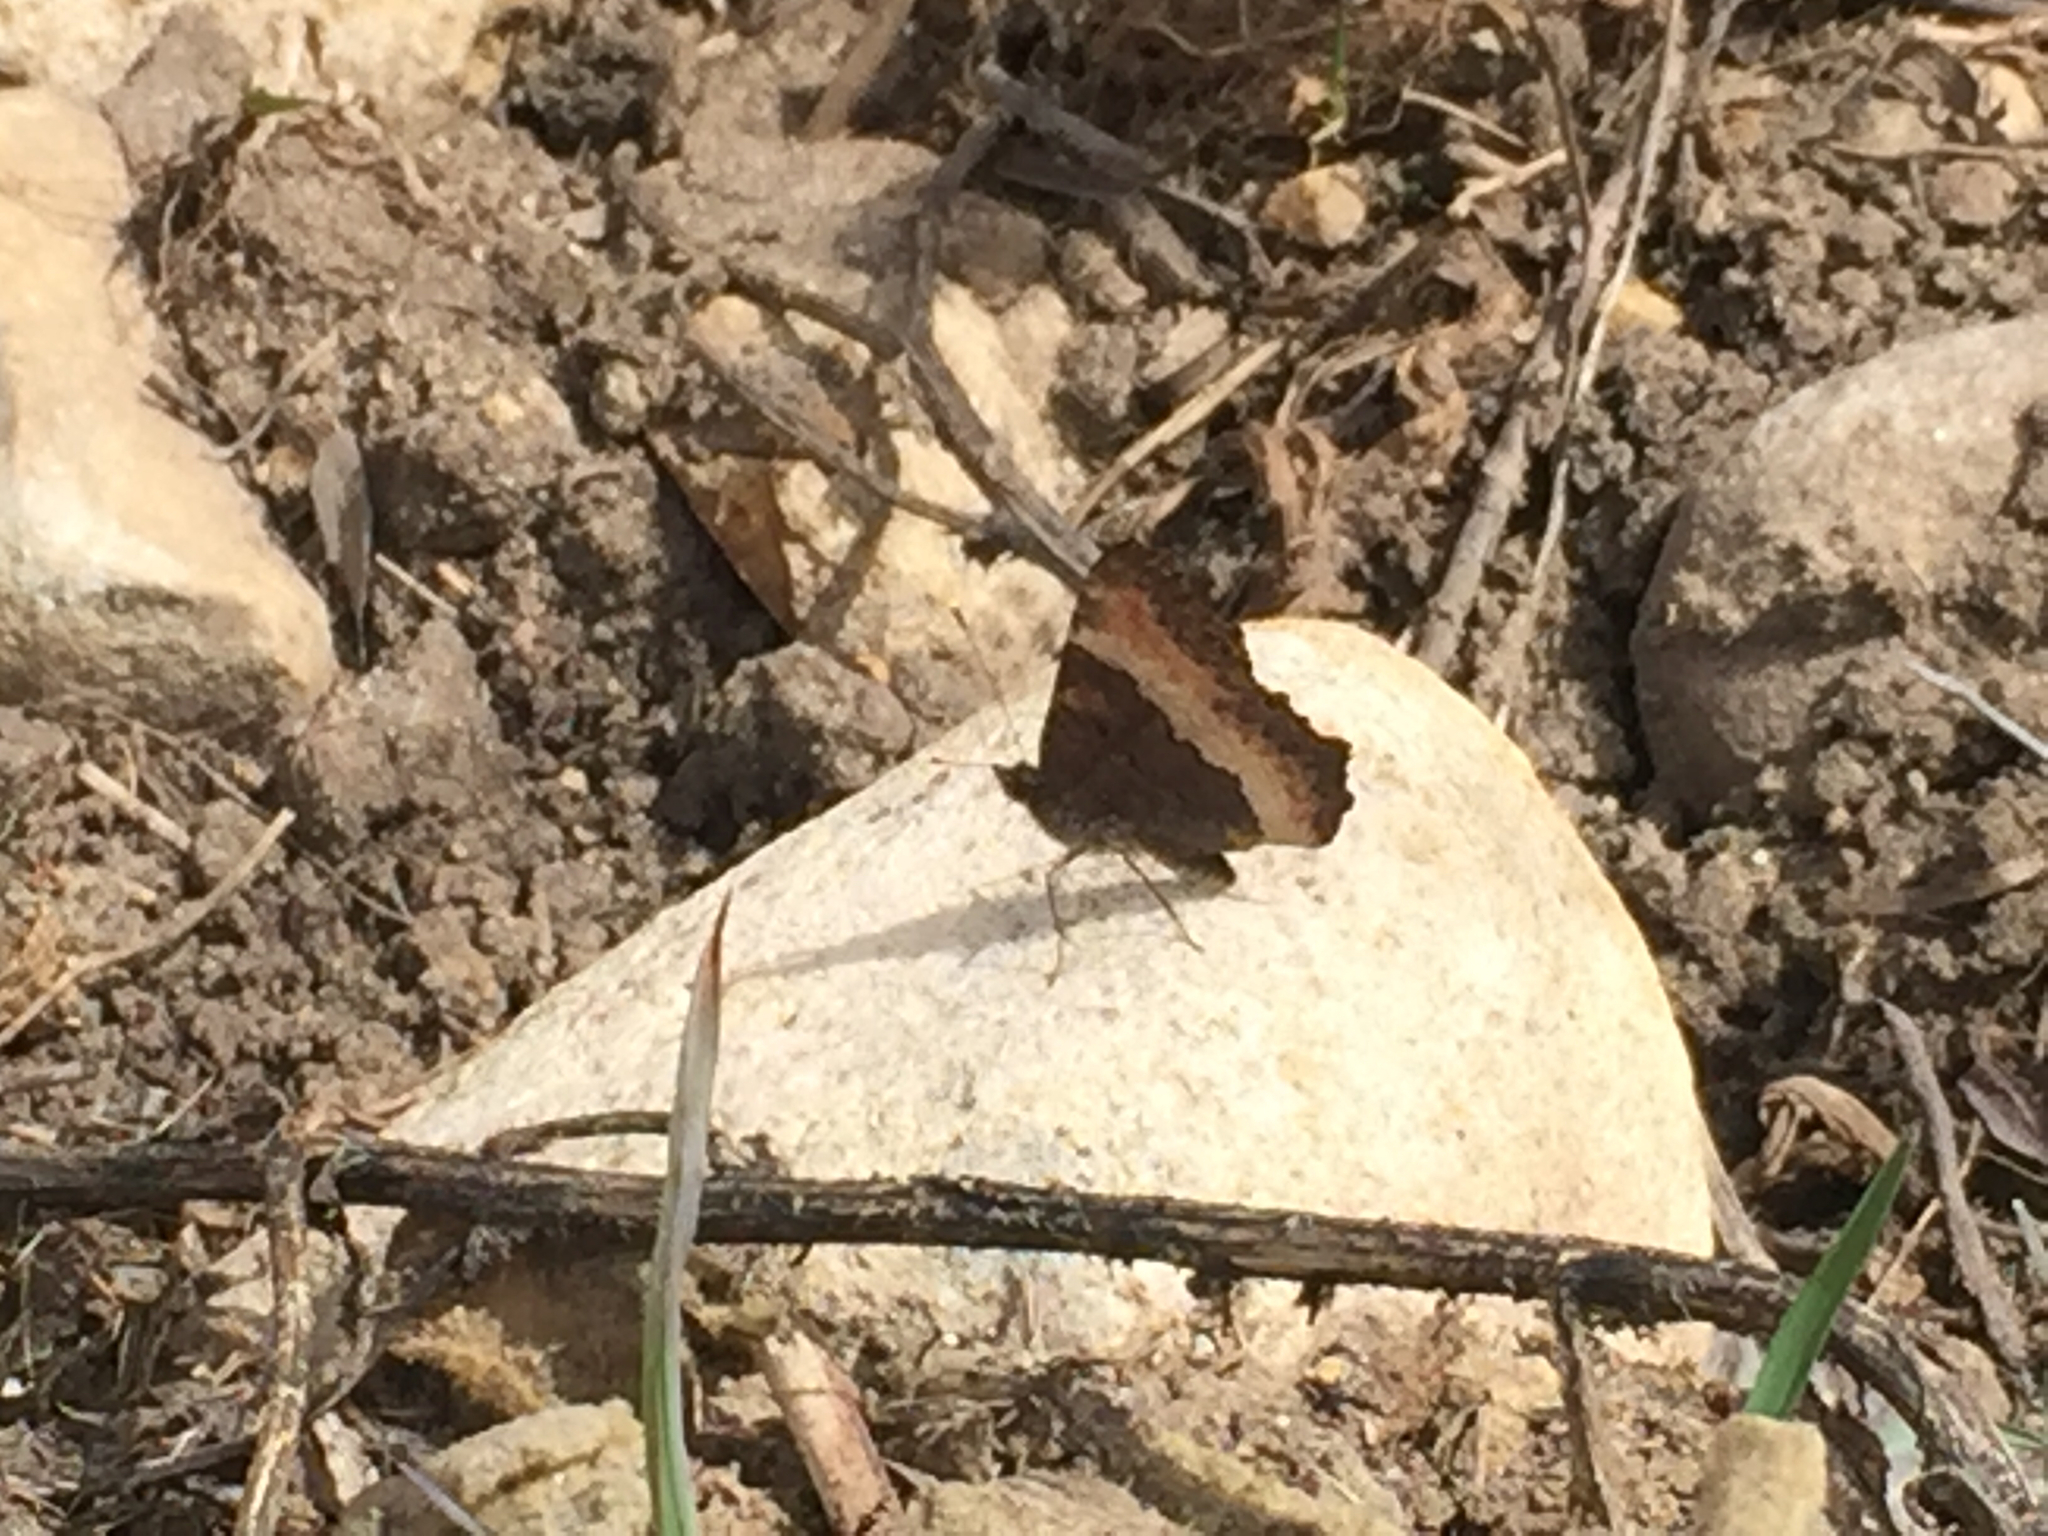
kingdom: Animalia
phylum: Arthropoda
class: Insecta
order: Lepidoptera
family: Nymphalidae
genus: Aglais
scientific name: Aglais milberti
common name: Milbert's tortoiseshell
